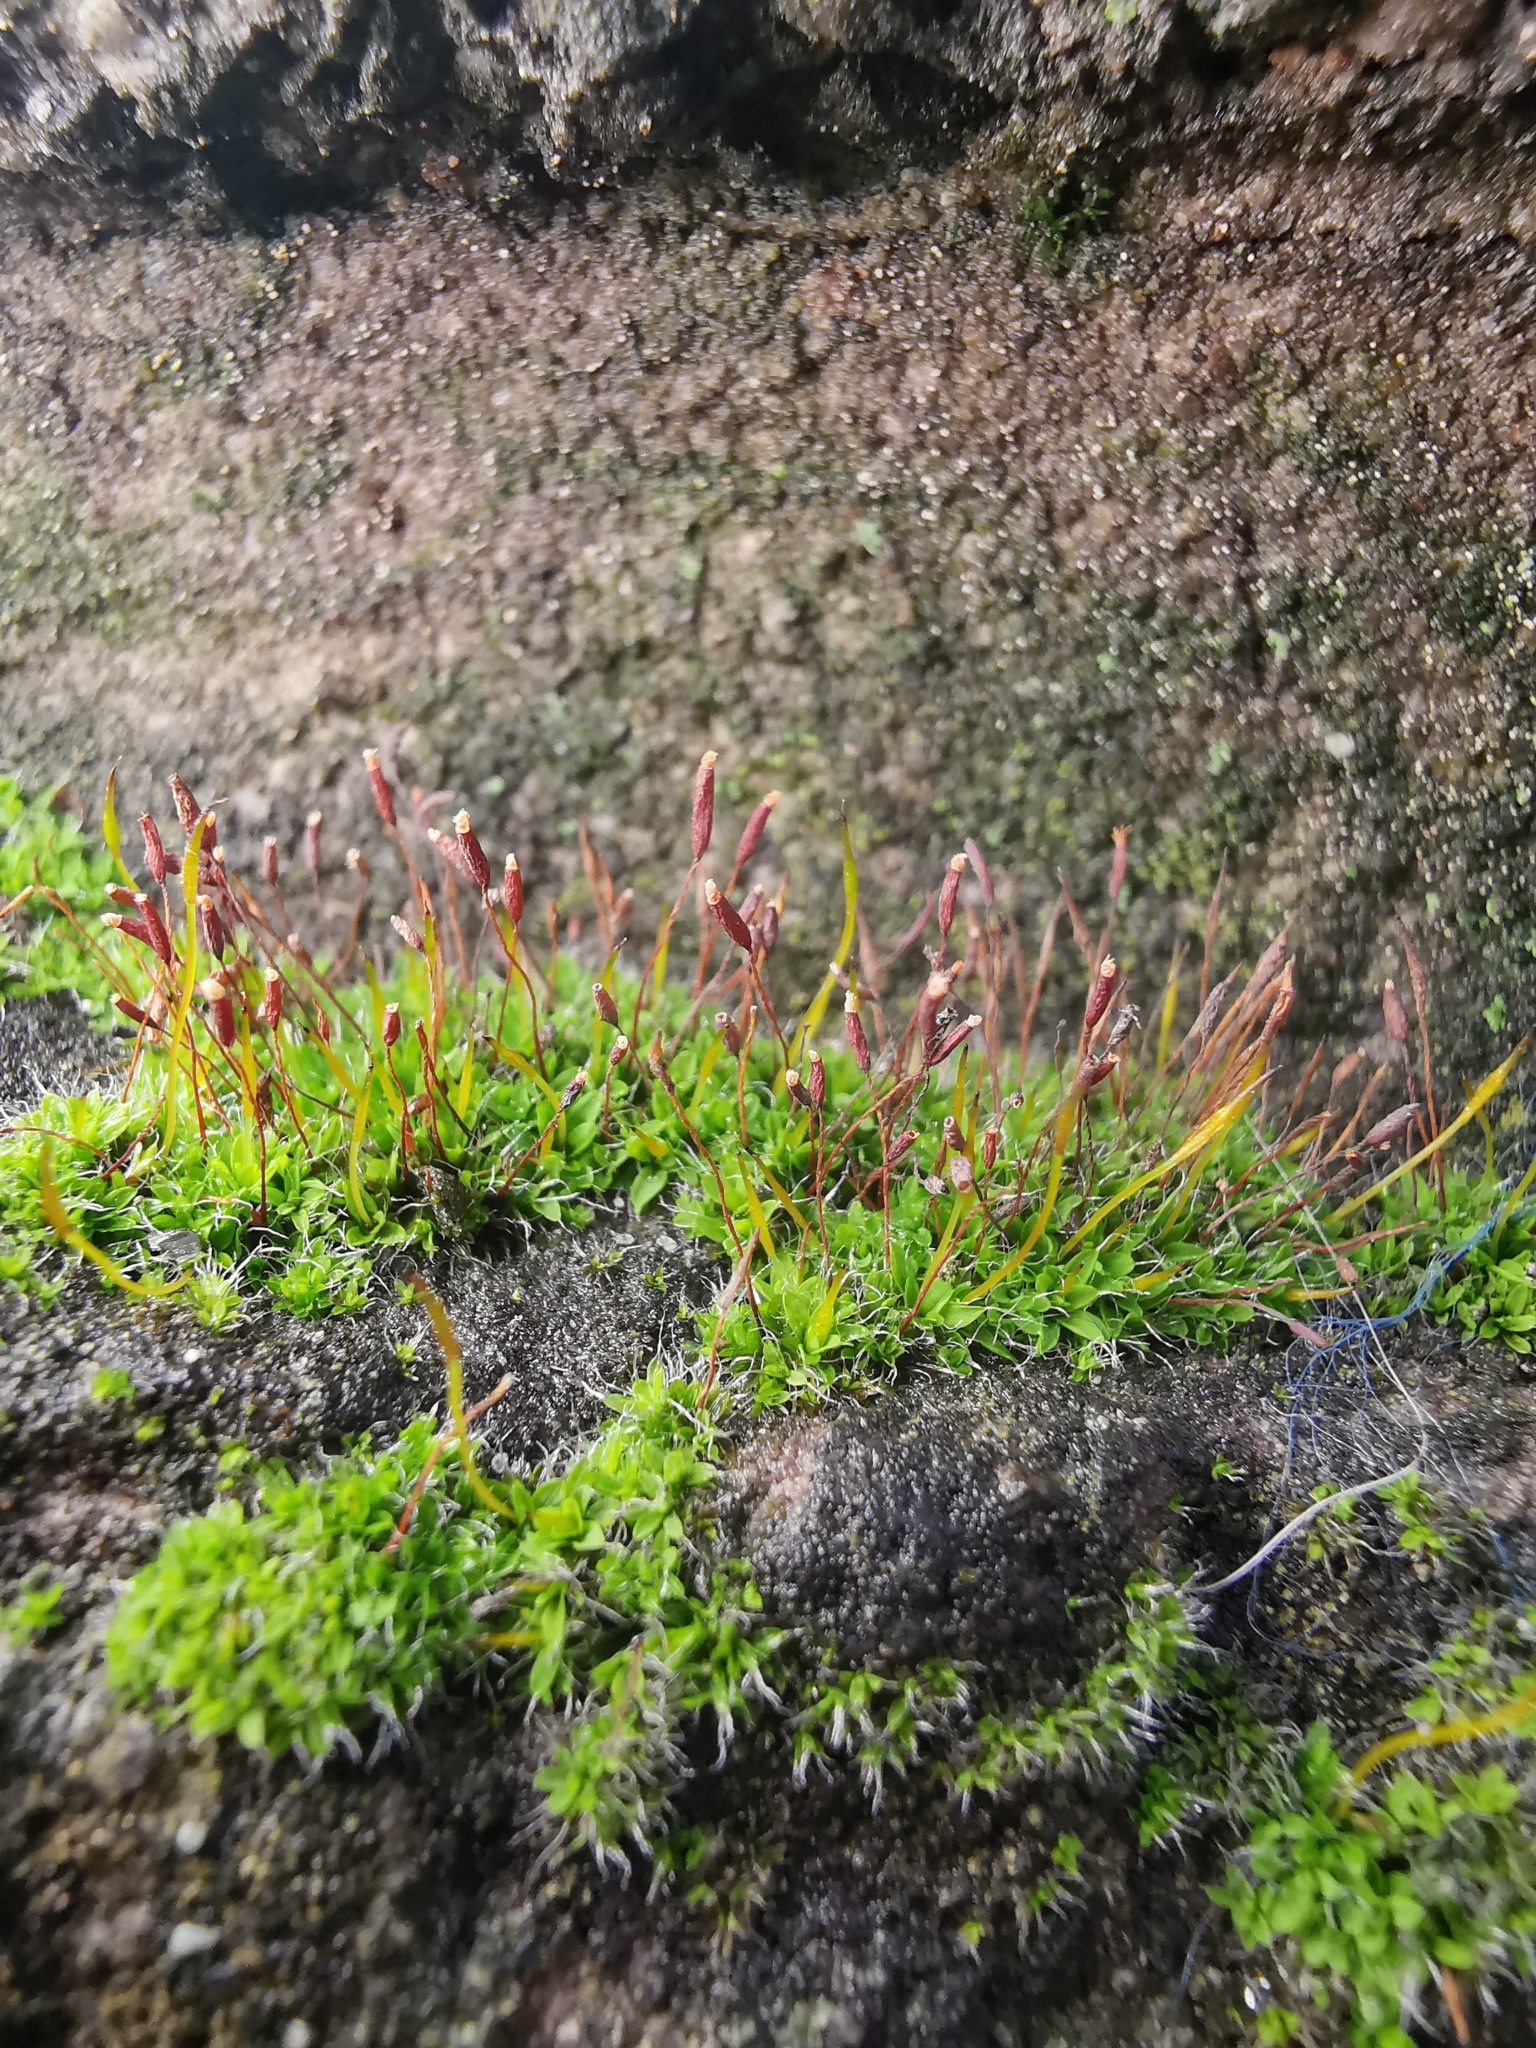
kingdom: Plantae
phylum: Bryophyta
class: Bryopsida
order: Pottiales
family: Pottiaceae
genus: Tortula
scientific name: Tortula muralis
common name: Wall screw-moss
